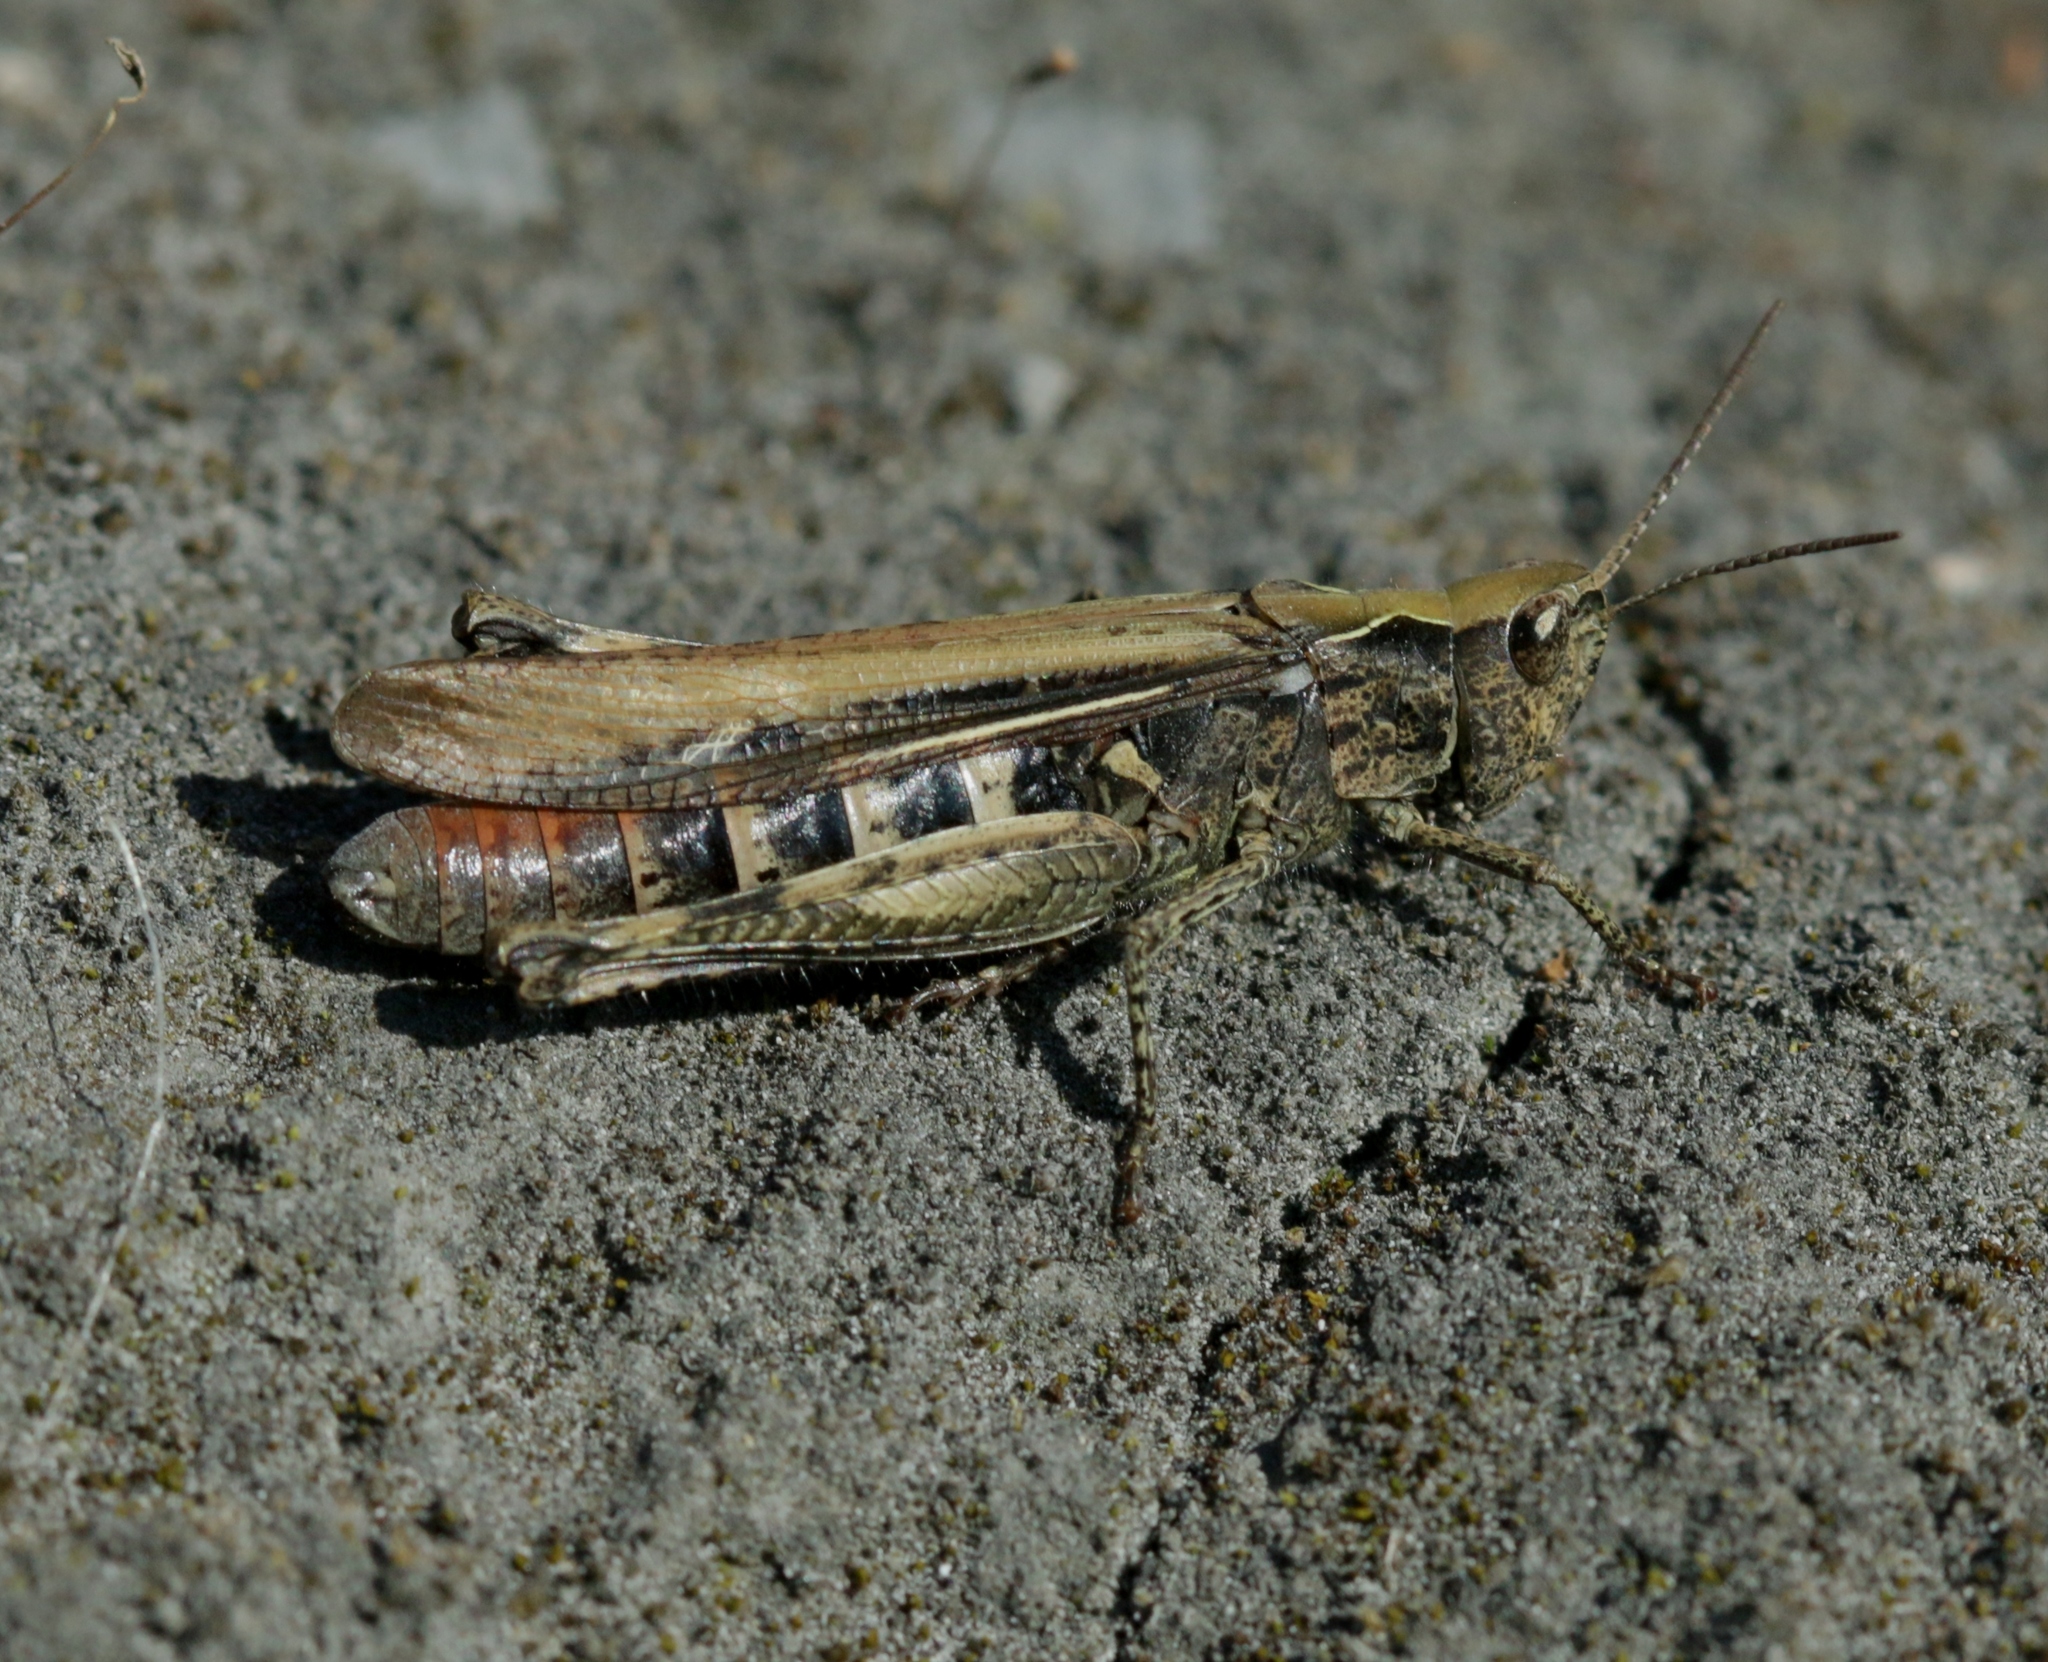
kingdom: Animalia
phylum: Arthropoda
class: Insecta
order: Orthoptera
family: Acrididae
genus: Chorthippus
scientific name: Chorthippus brunneus
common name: Field grasshopper
